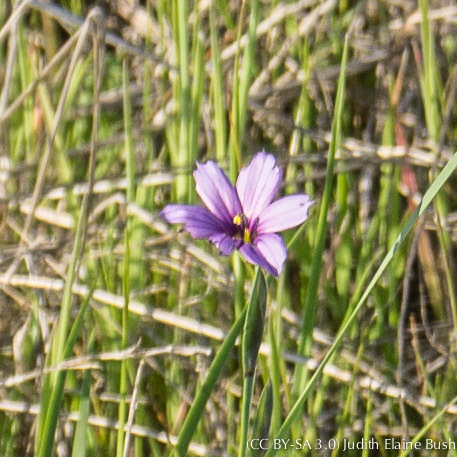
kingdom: Plantae
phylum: Tracheophyta
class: Liliopsida
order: Asparagales
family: Iridaceae
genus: Sisyrinchium
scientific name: Sisyrinchium bellum
